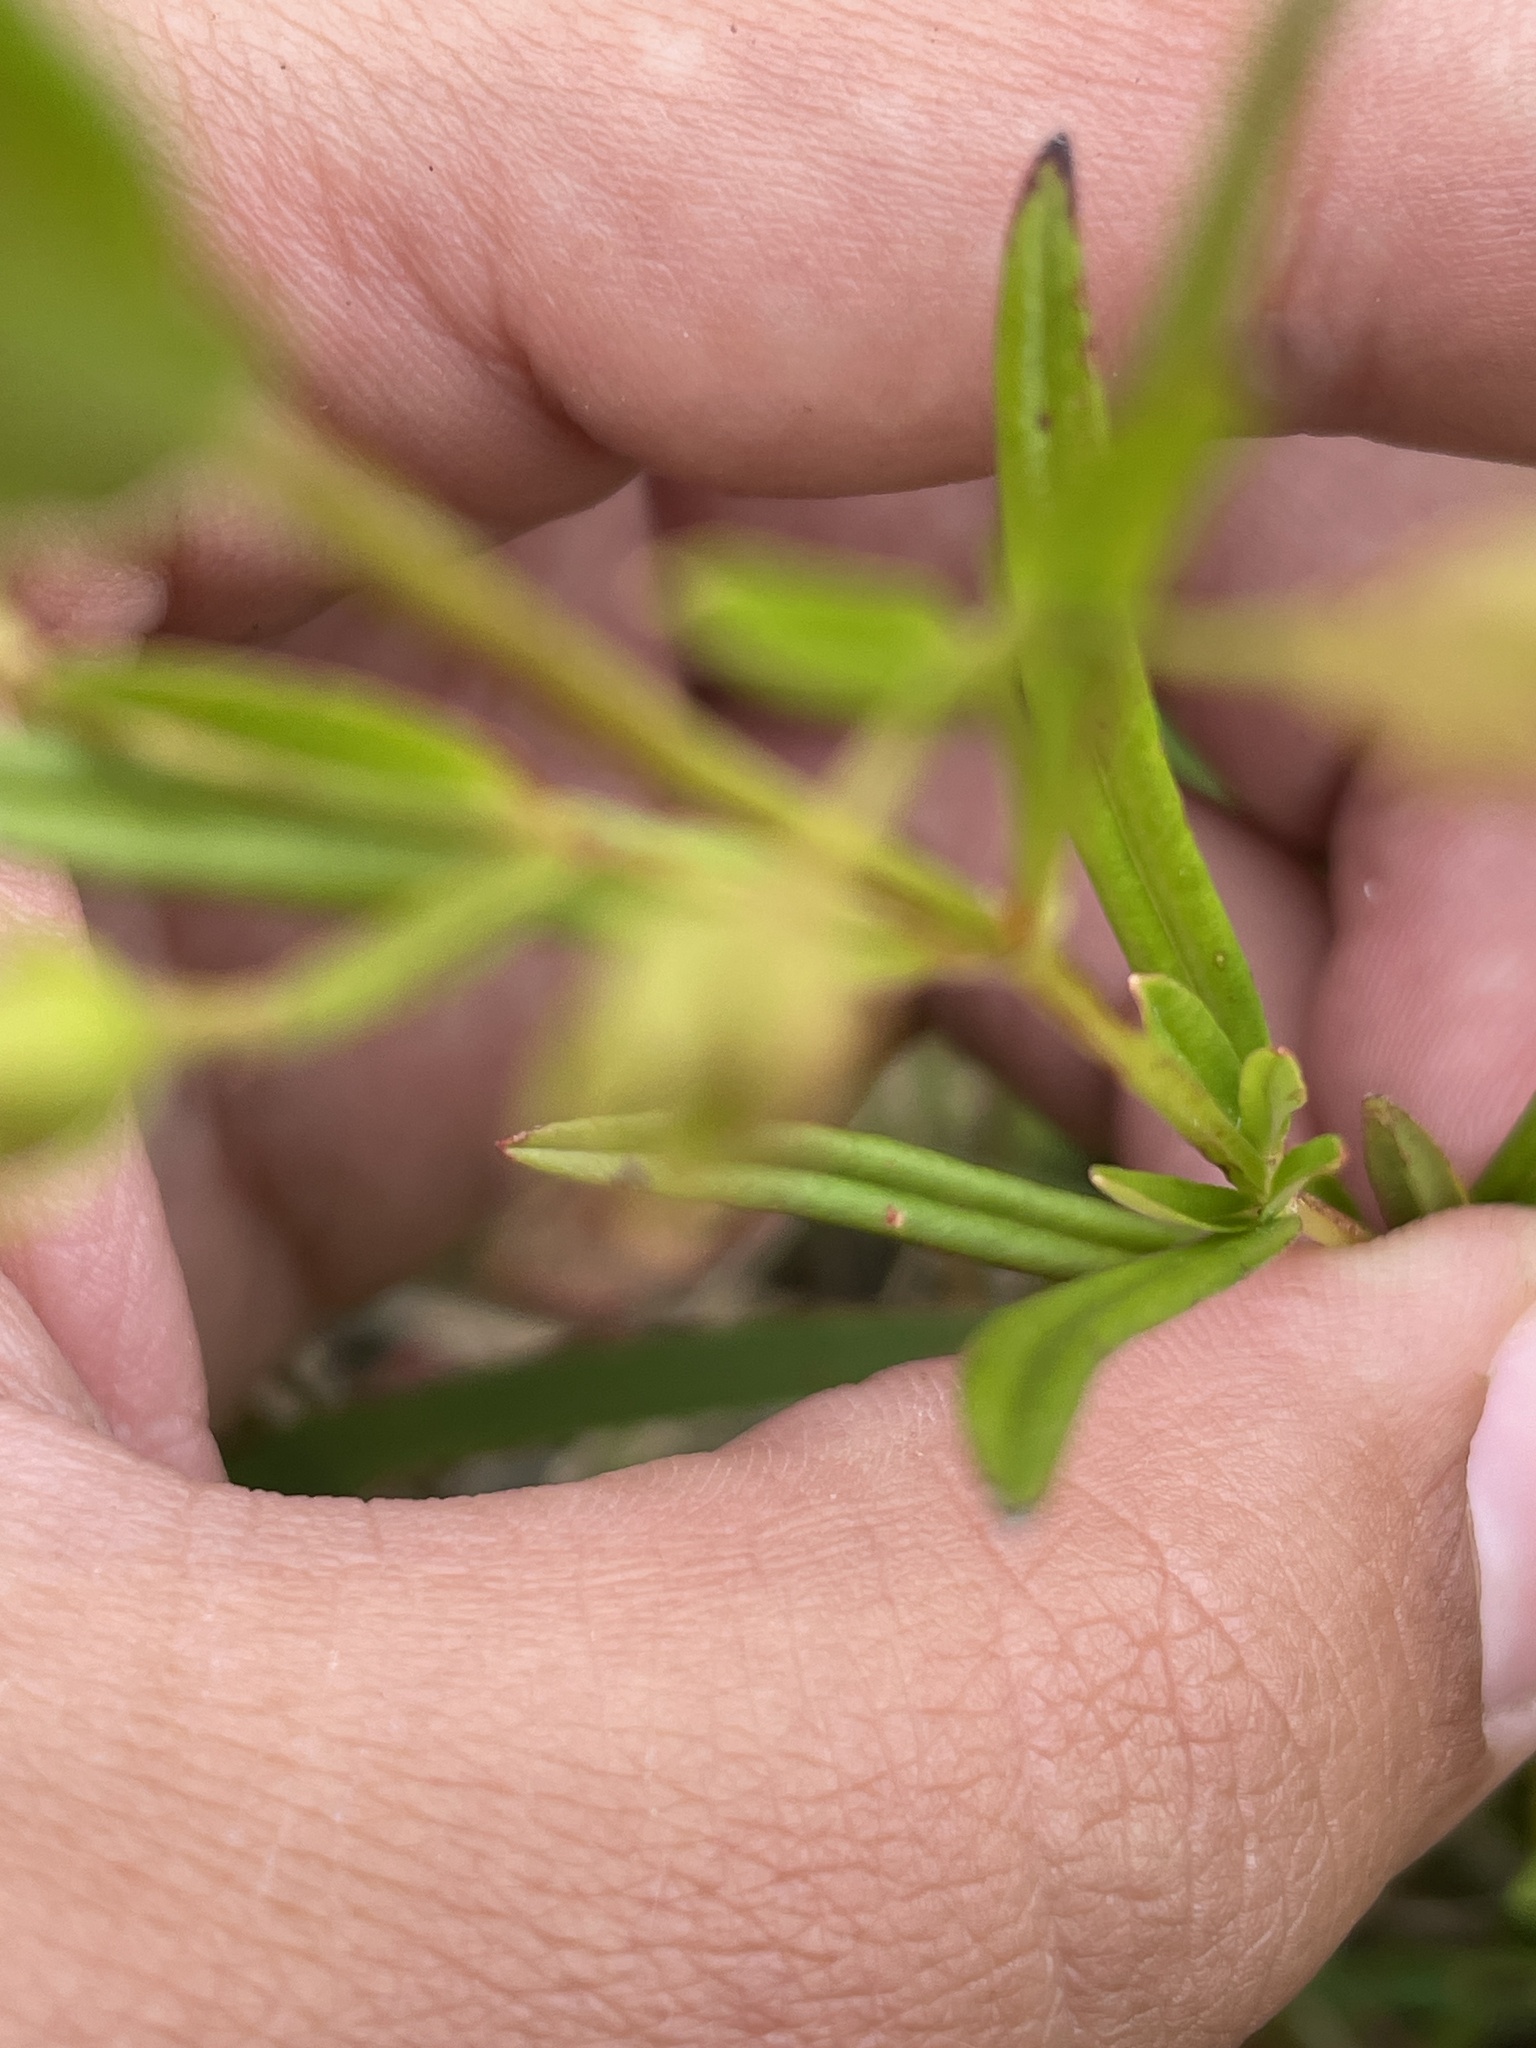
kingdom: Plantae
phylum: Tracheophyta
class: Magnoliopsida
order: Ericales
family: Primulaceae
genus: Lysimachia
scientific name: Lysimachia quadriflora
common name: Four-flowered loosestrife
